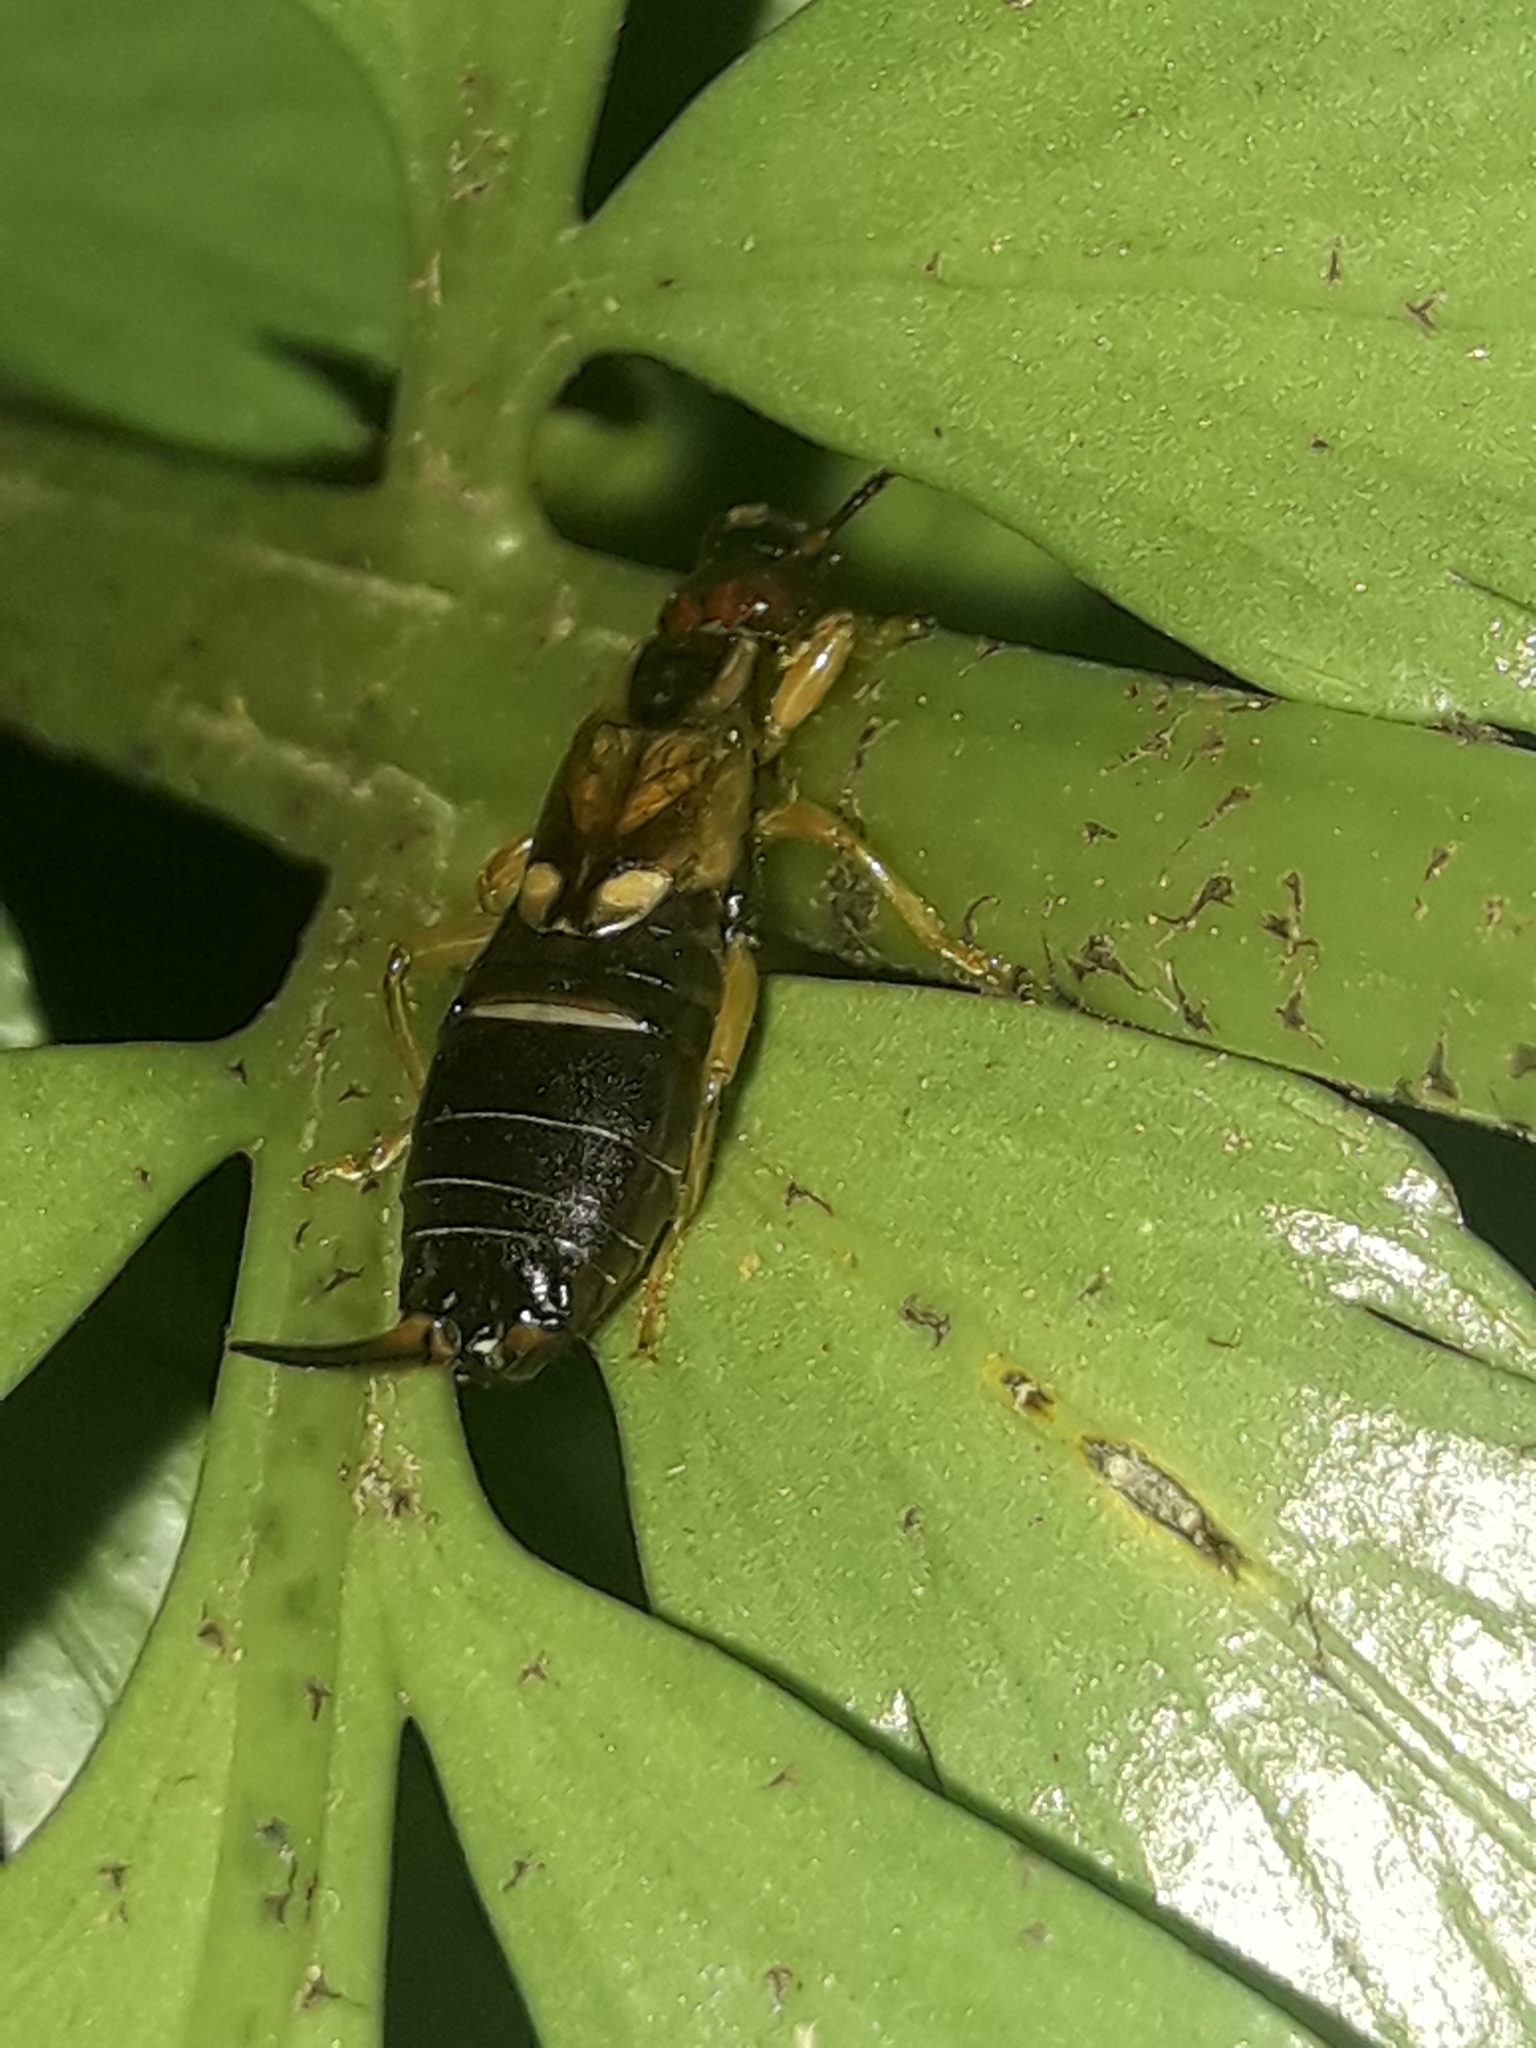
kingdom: Animalia
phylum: Arthropoda
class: Insecta
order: Dermaptera
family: Forficulidae
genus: Forficula
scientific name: Forficula
